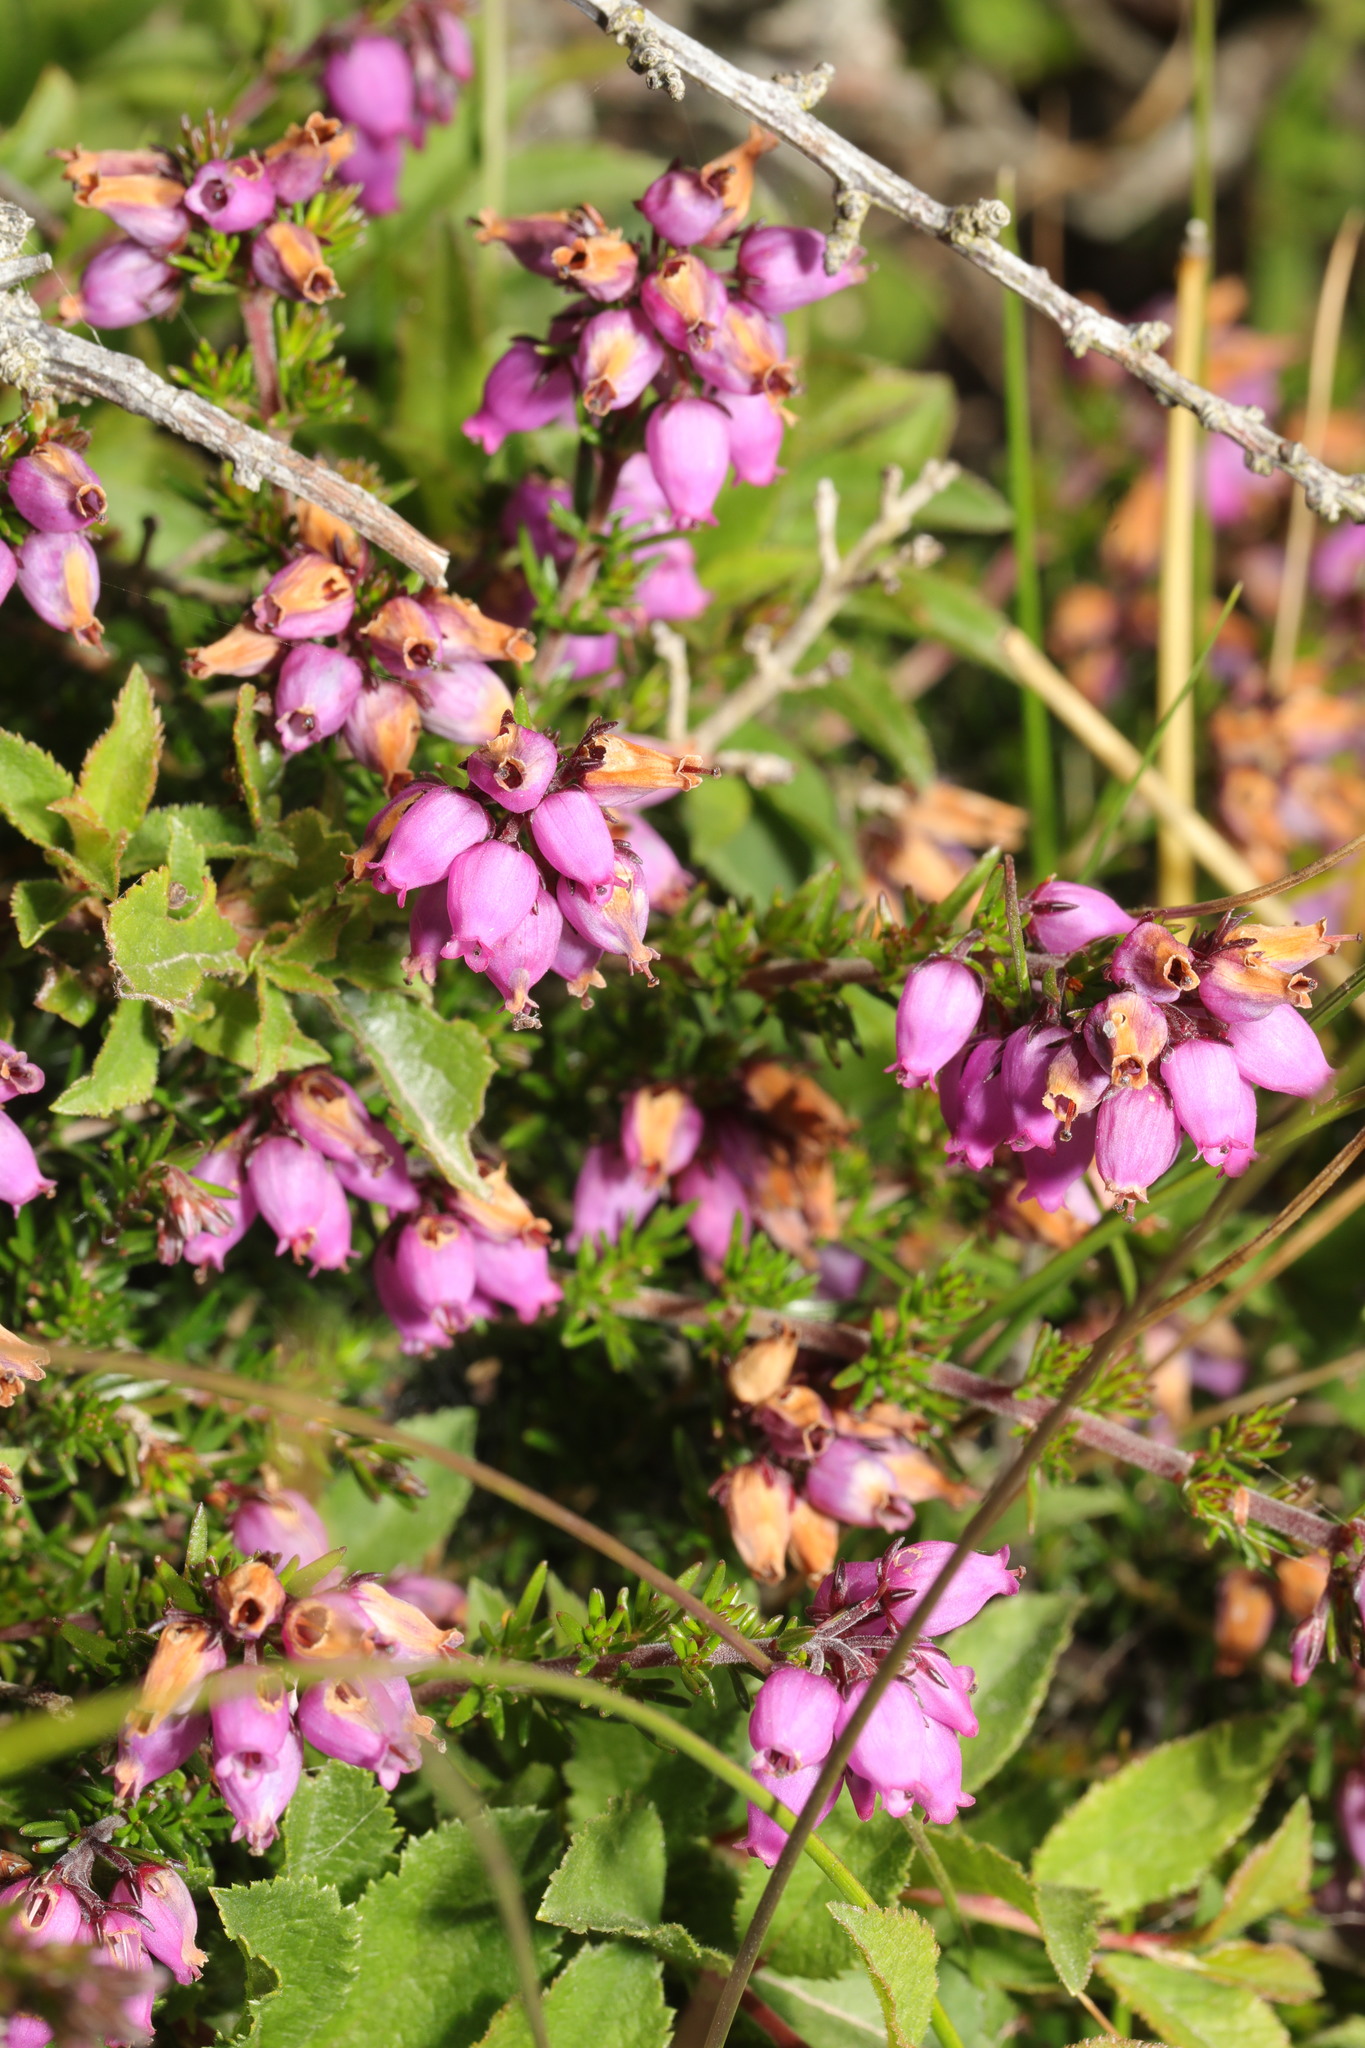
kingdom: Plantae
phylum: Tracheophyta
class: Magnoliopsida
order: Ericales
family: Ericaceae
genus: Erica
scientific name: Erica cinerea
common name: Bell heather
